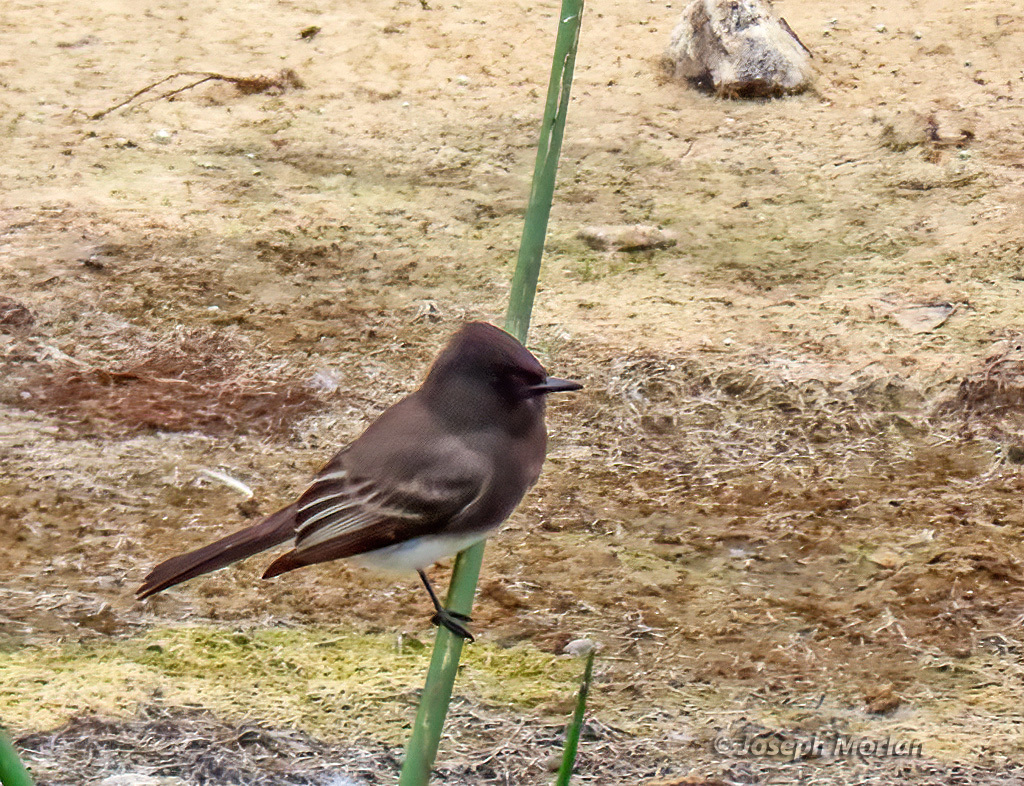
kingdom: Animalia
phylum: Chordata
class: Aves
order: Passeriformes
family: Tyrannidae
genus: Sayornis
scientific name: Sayornis nigricans
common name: Black phoebe
